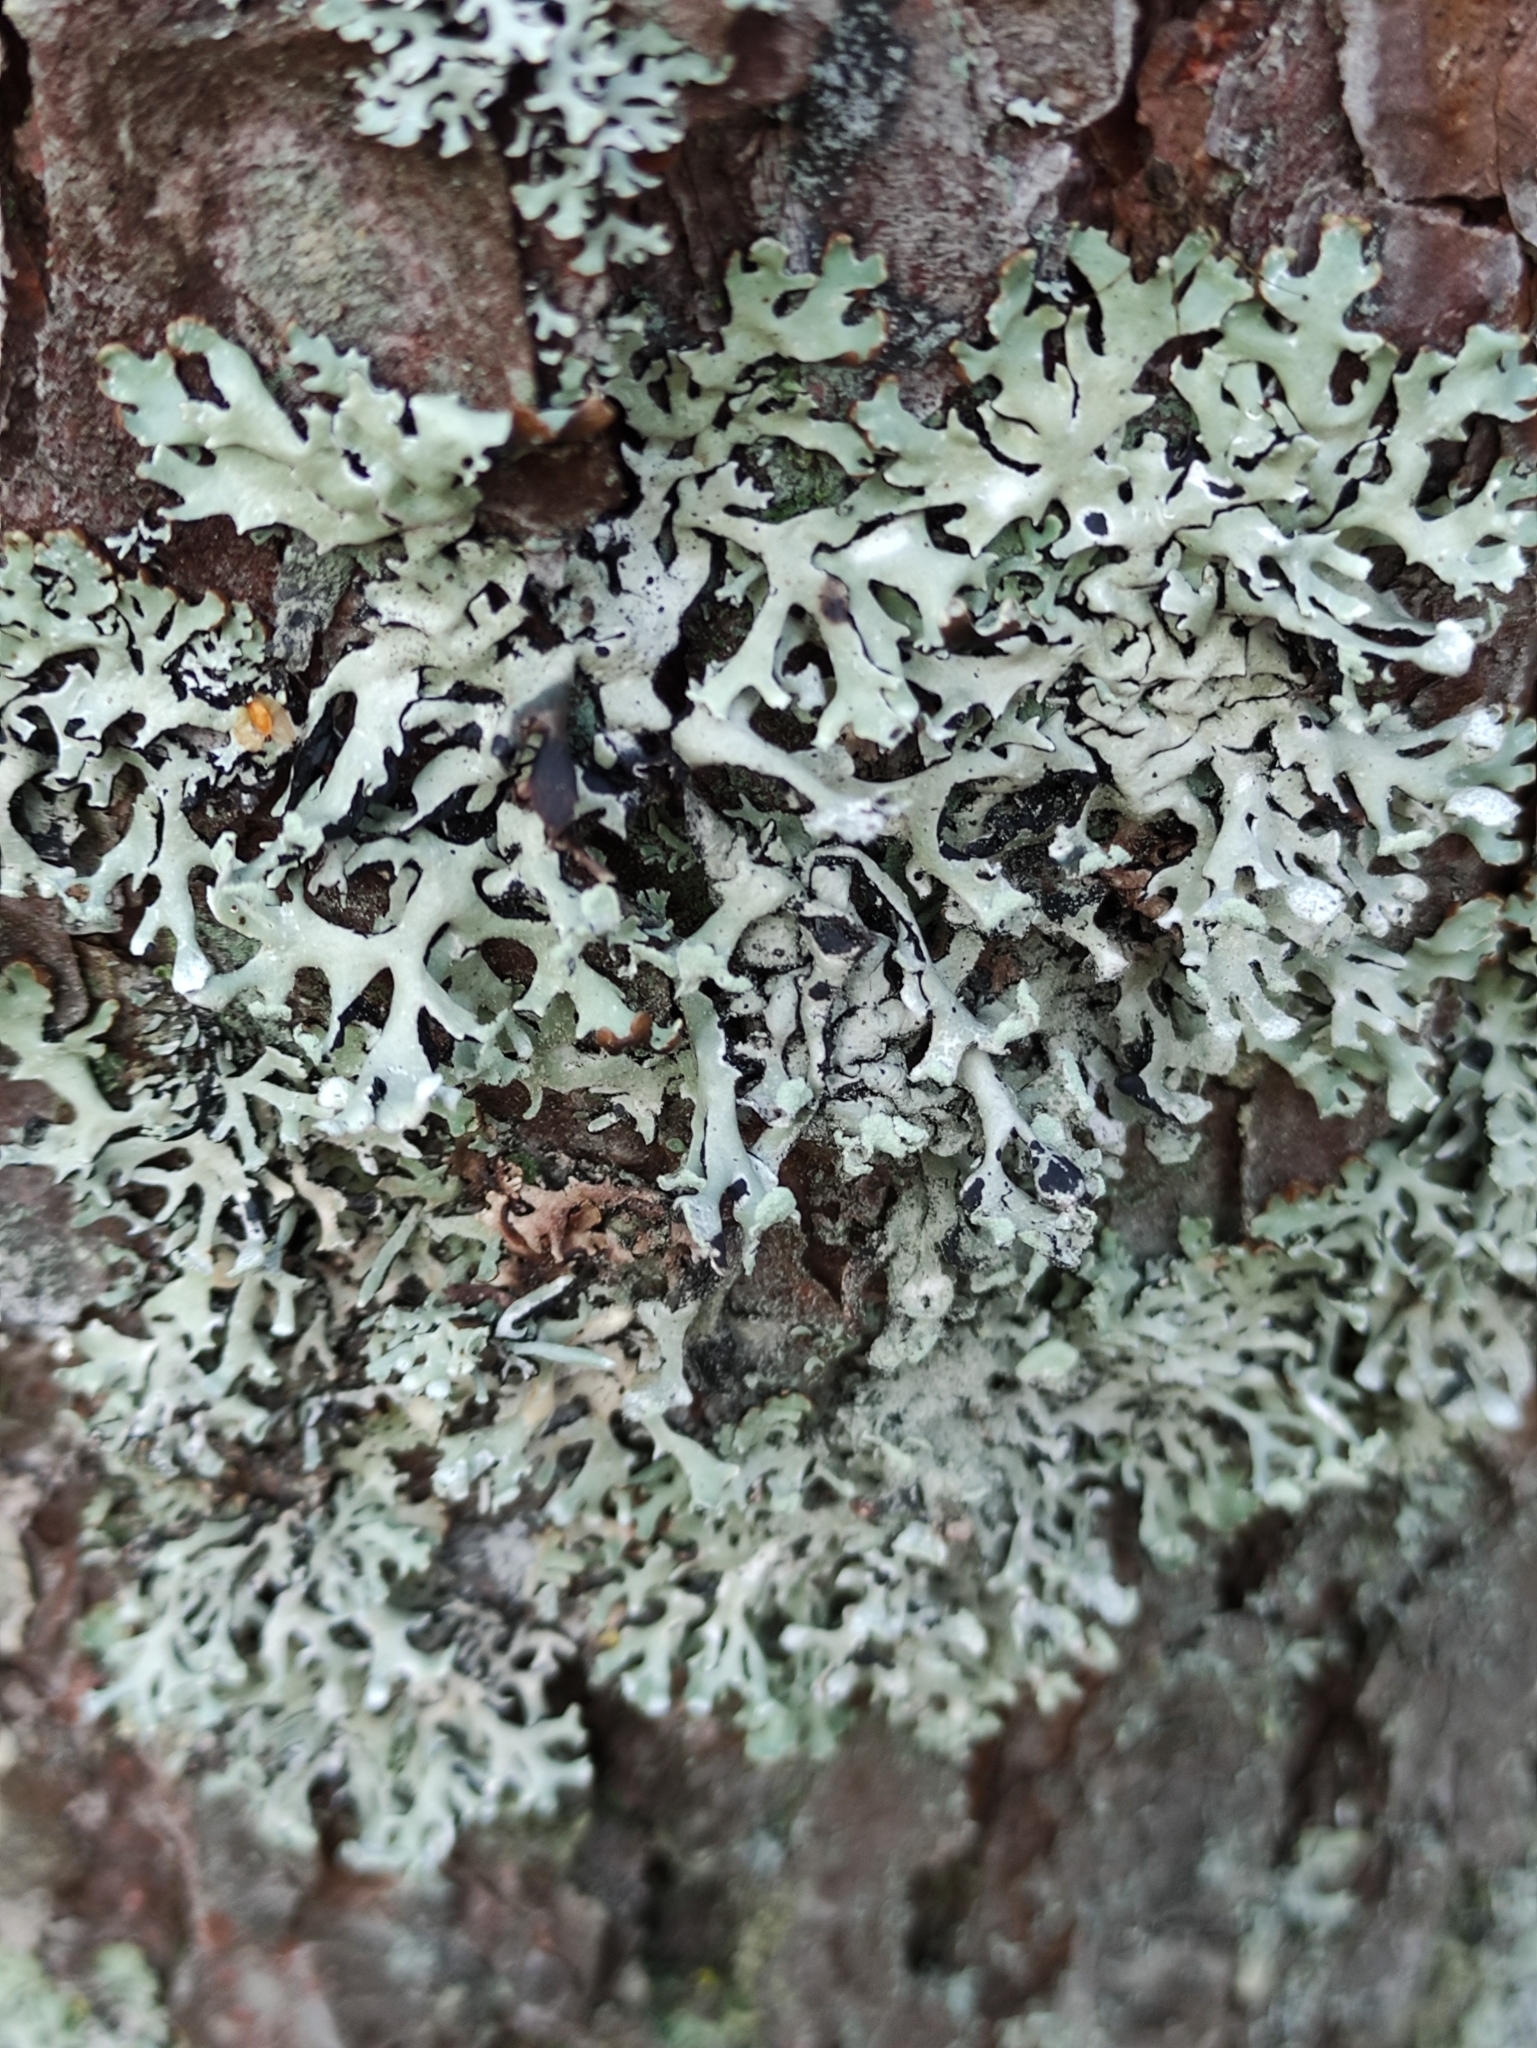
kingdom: Fungi
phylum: Ascomycota
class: Lecanoromycetes
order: Lecanorales
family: Parmeliaceae
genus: Hypogymnia
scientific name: Hypogymnia physodes
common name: Dark crottle
